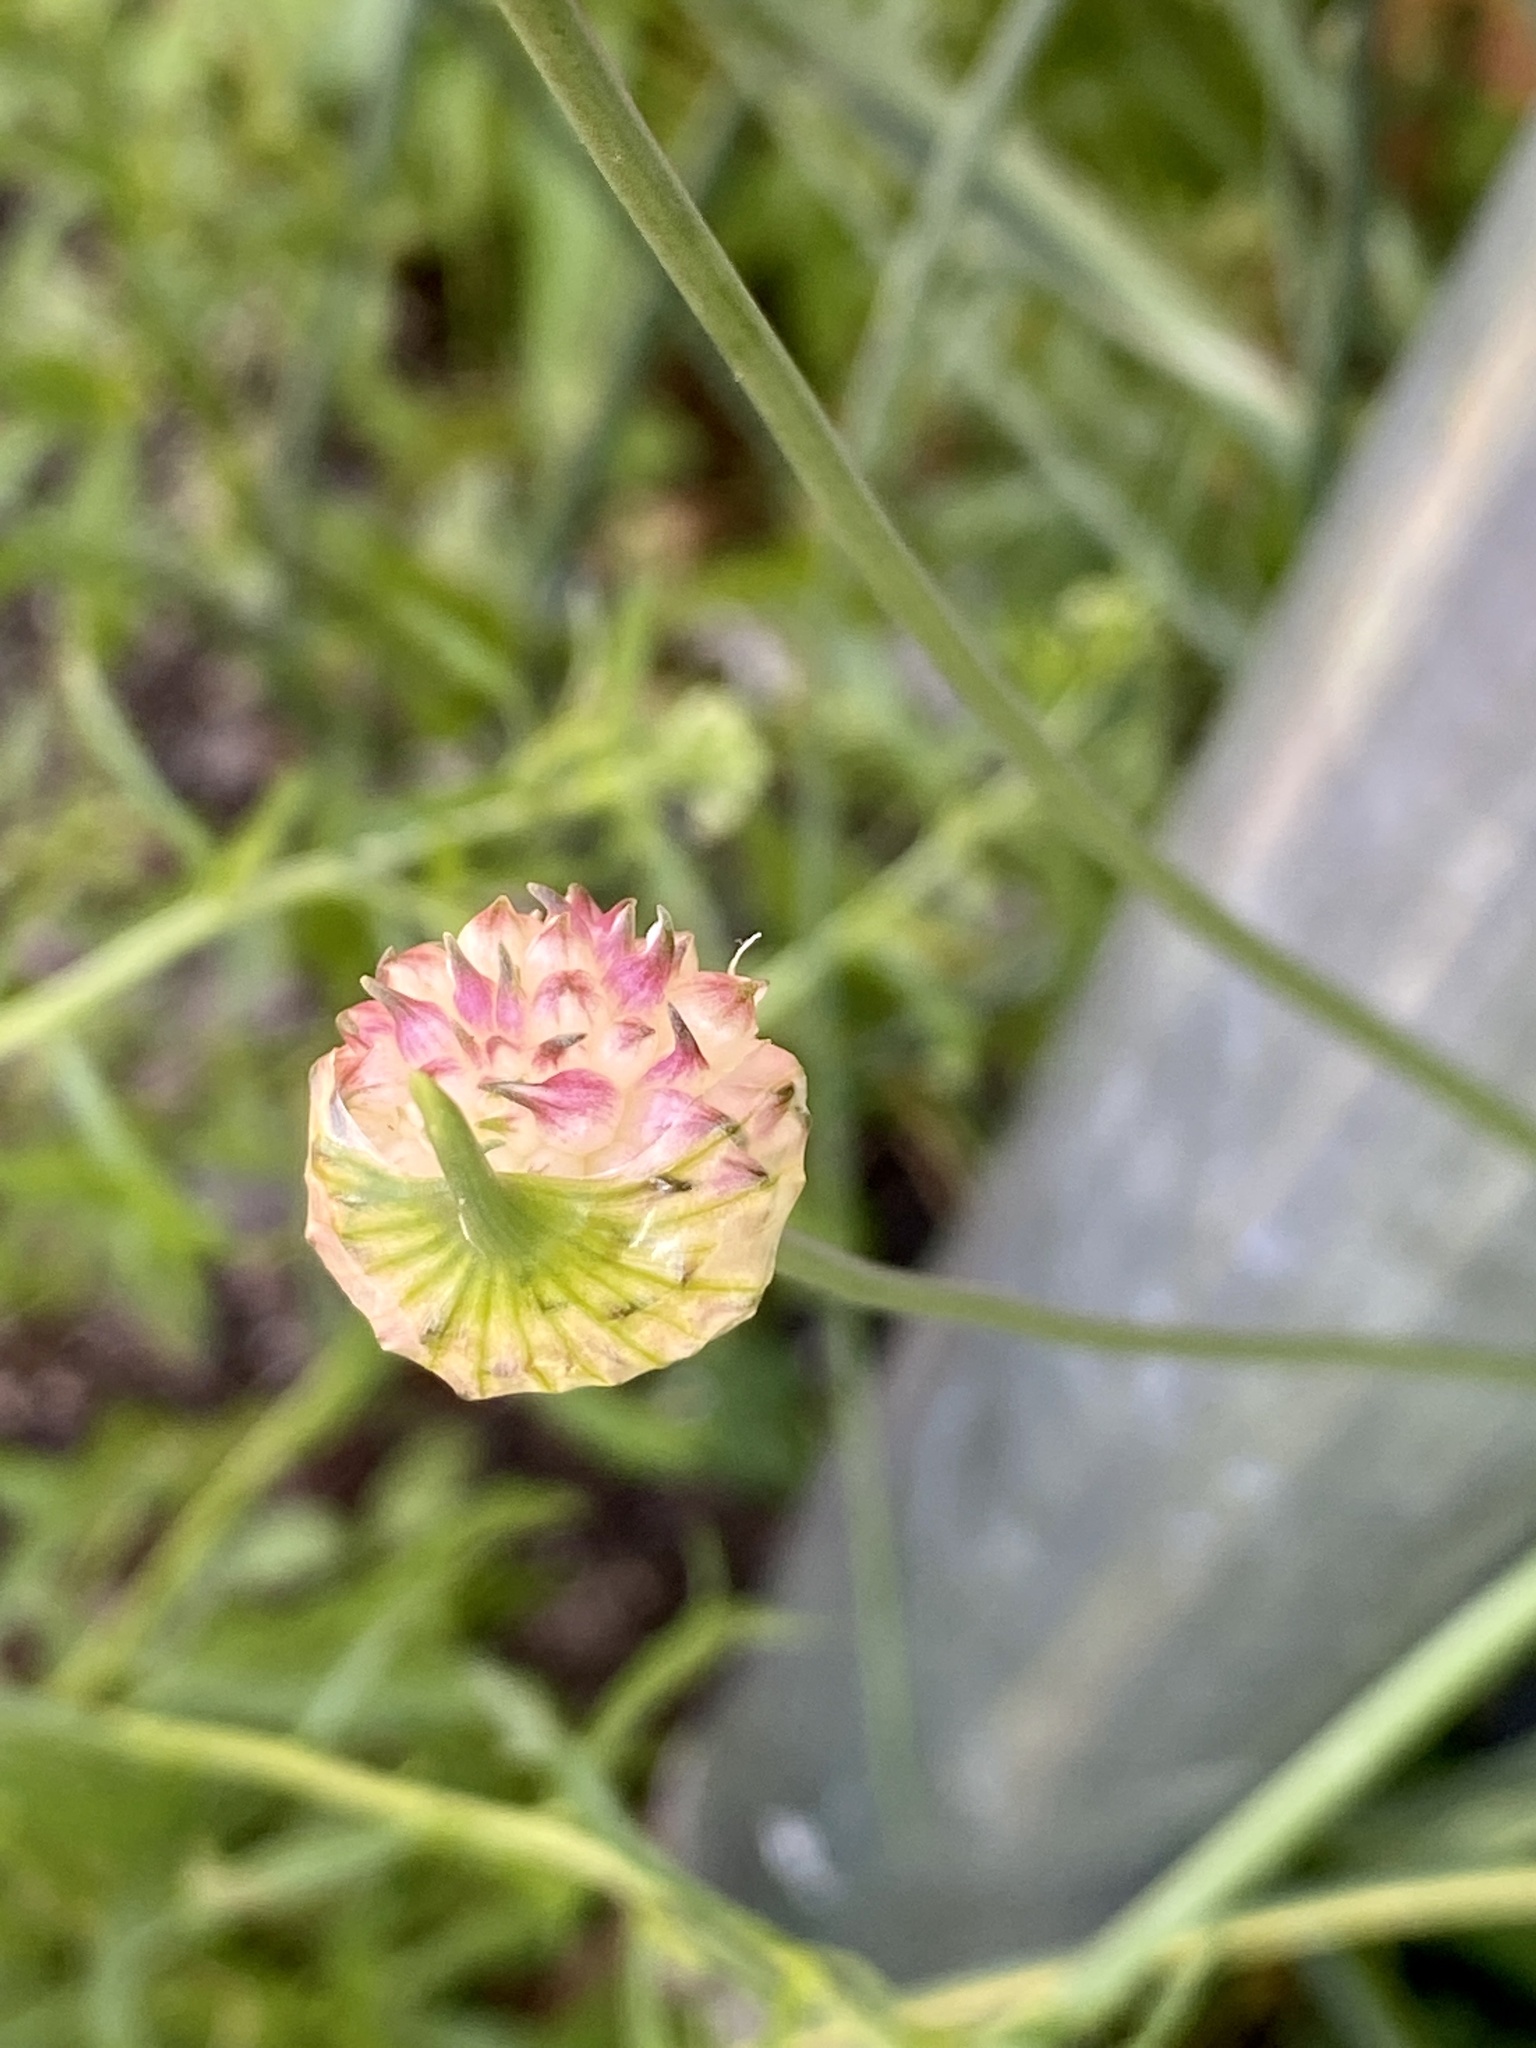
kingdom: Plantae
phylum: Tracheophyta
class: Liliopsida
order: Asparagales
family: Amaryllidaceae
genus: Allium
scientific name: Allium vineale
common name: Crow garlic
